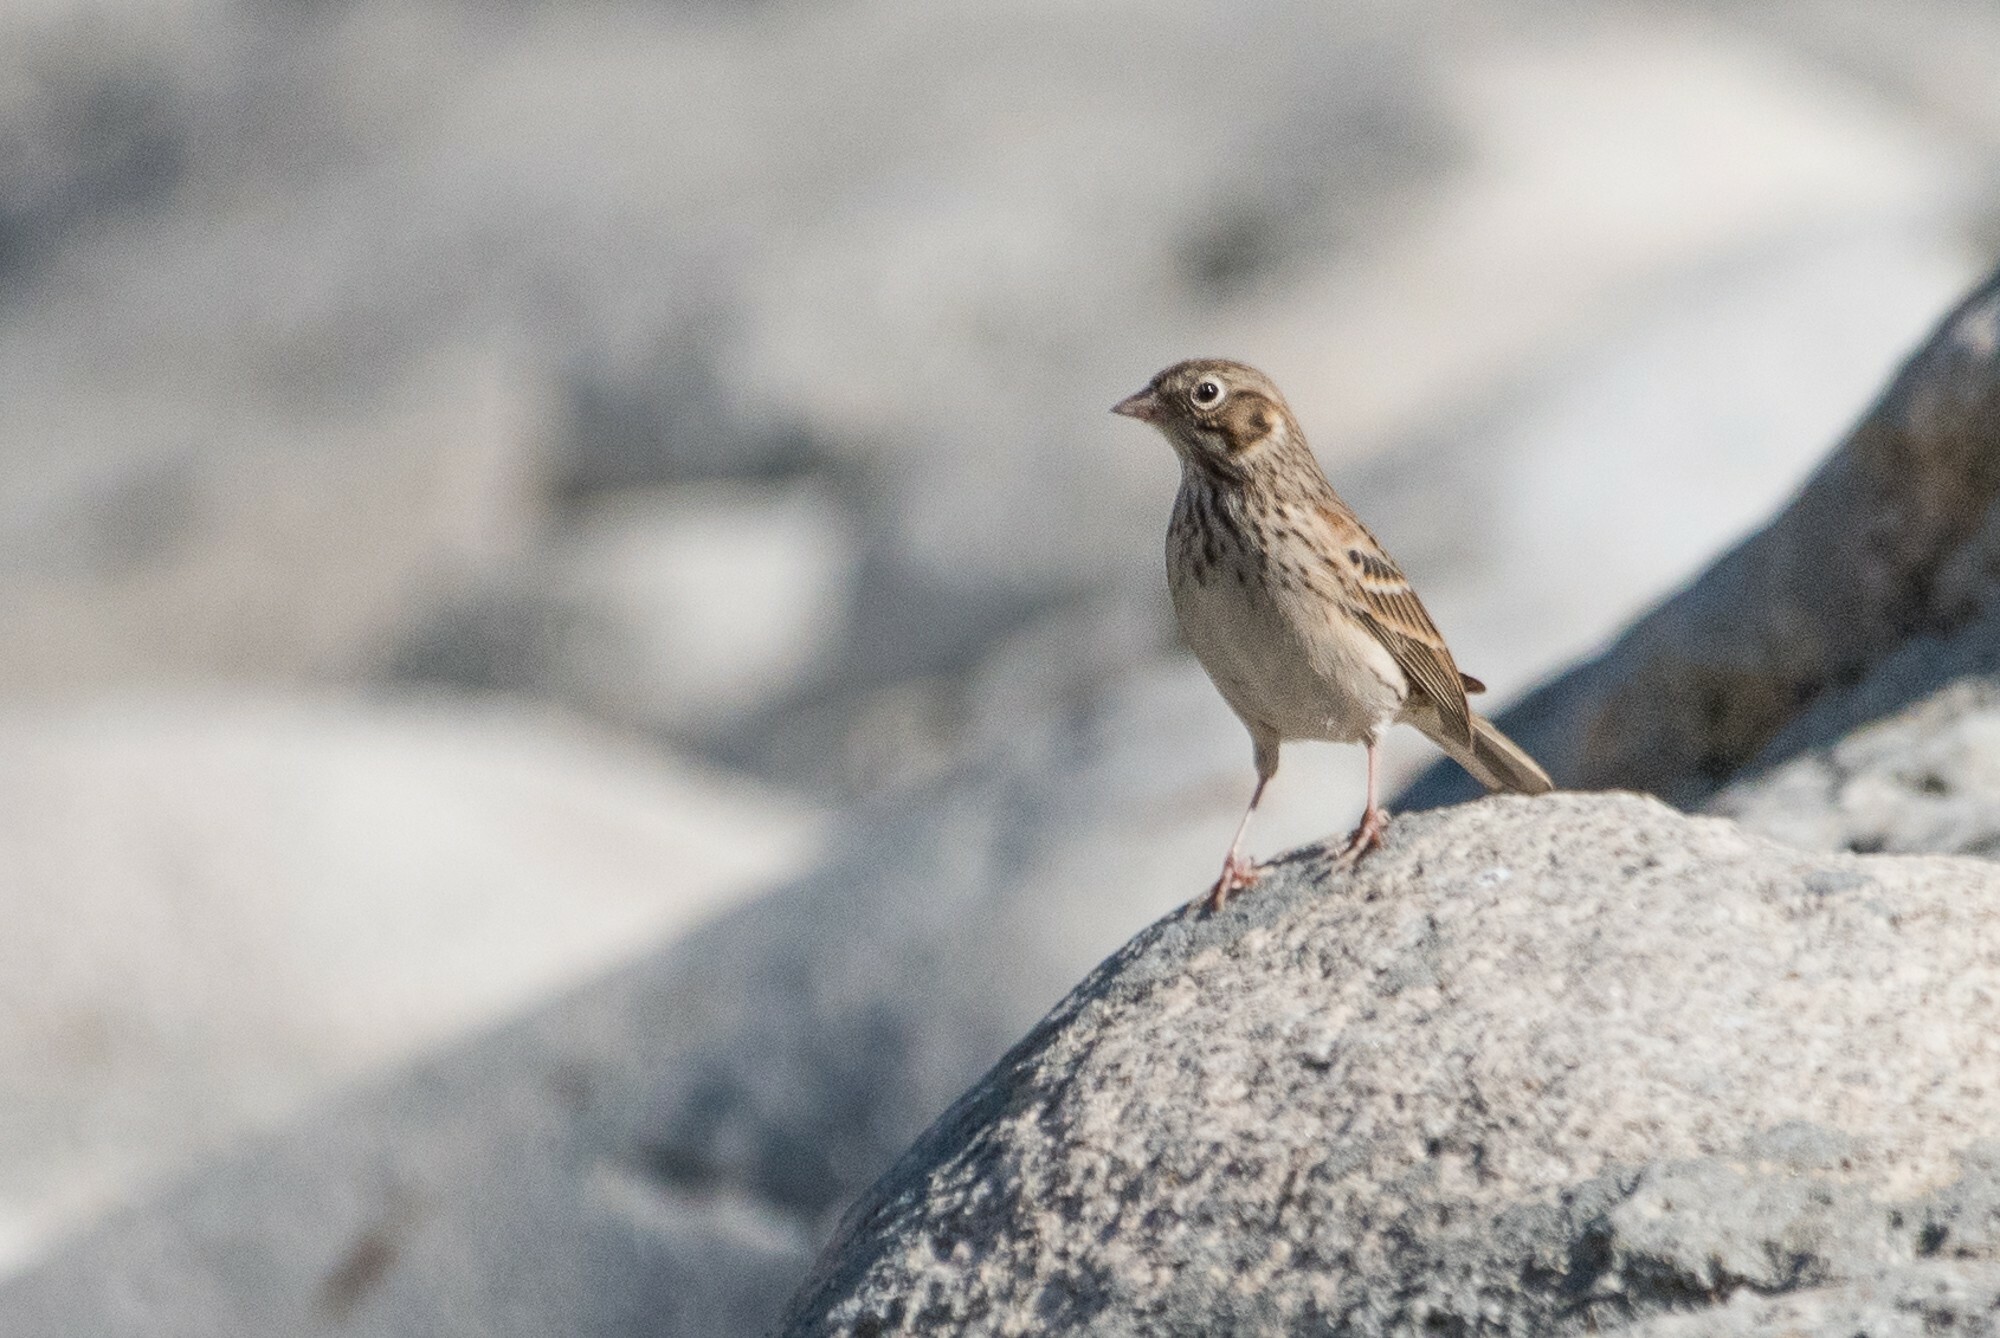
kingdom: Animalia
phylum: Chordata
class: Aves
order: Passeriformes
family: Passerellidae
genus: Pooecetes
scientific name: Pooecetes gramineus
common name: Vesper sparrow
